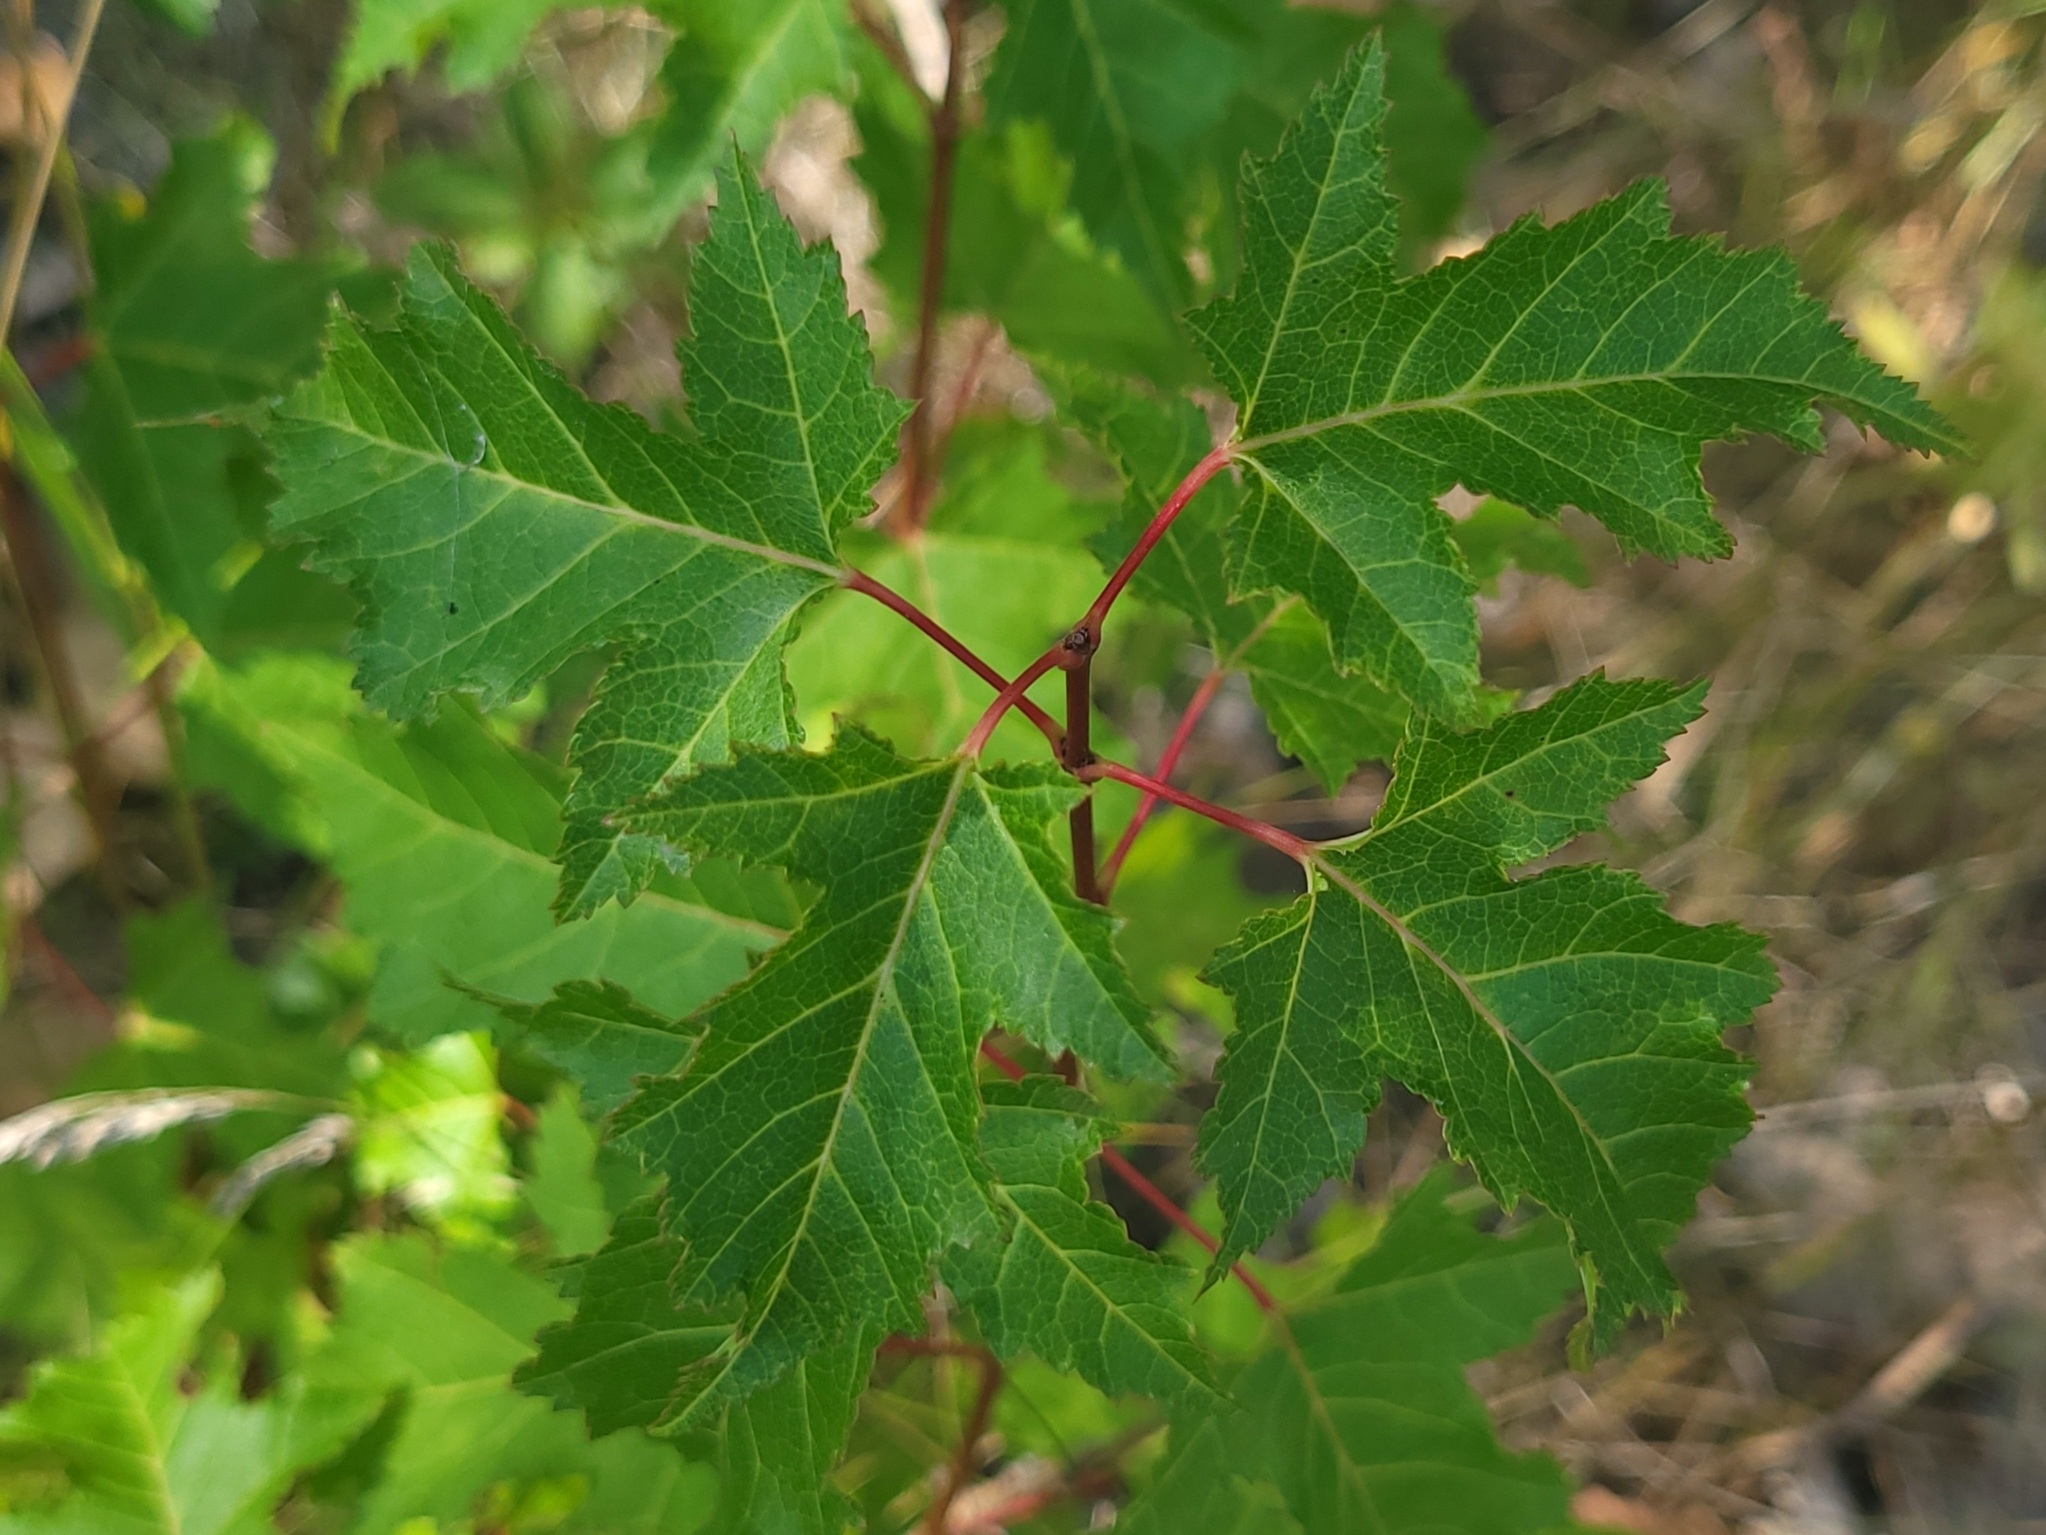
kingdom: Plantae
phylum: Tracheophyta
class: Magnoliopsida
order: Sapindales
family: Sapindaceae
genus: Acer
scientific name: Acer tataricum
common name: Tartar maple
